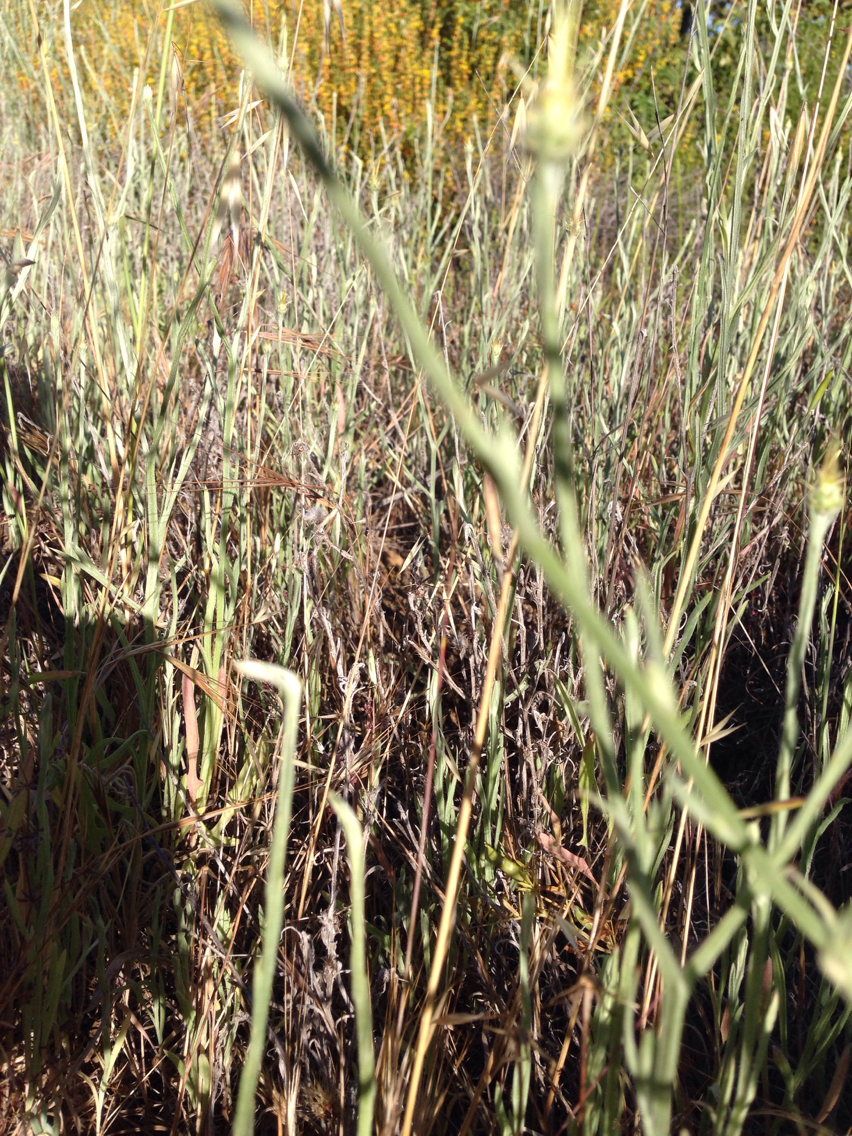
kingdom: Plantae
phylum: Tracheophyta
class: Magnoliopsida
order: Asterales
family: Asteraceae
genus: Centaurea
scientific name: Centaurea solstitialis
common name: Yellow star-thistle
